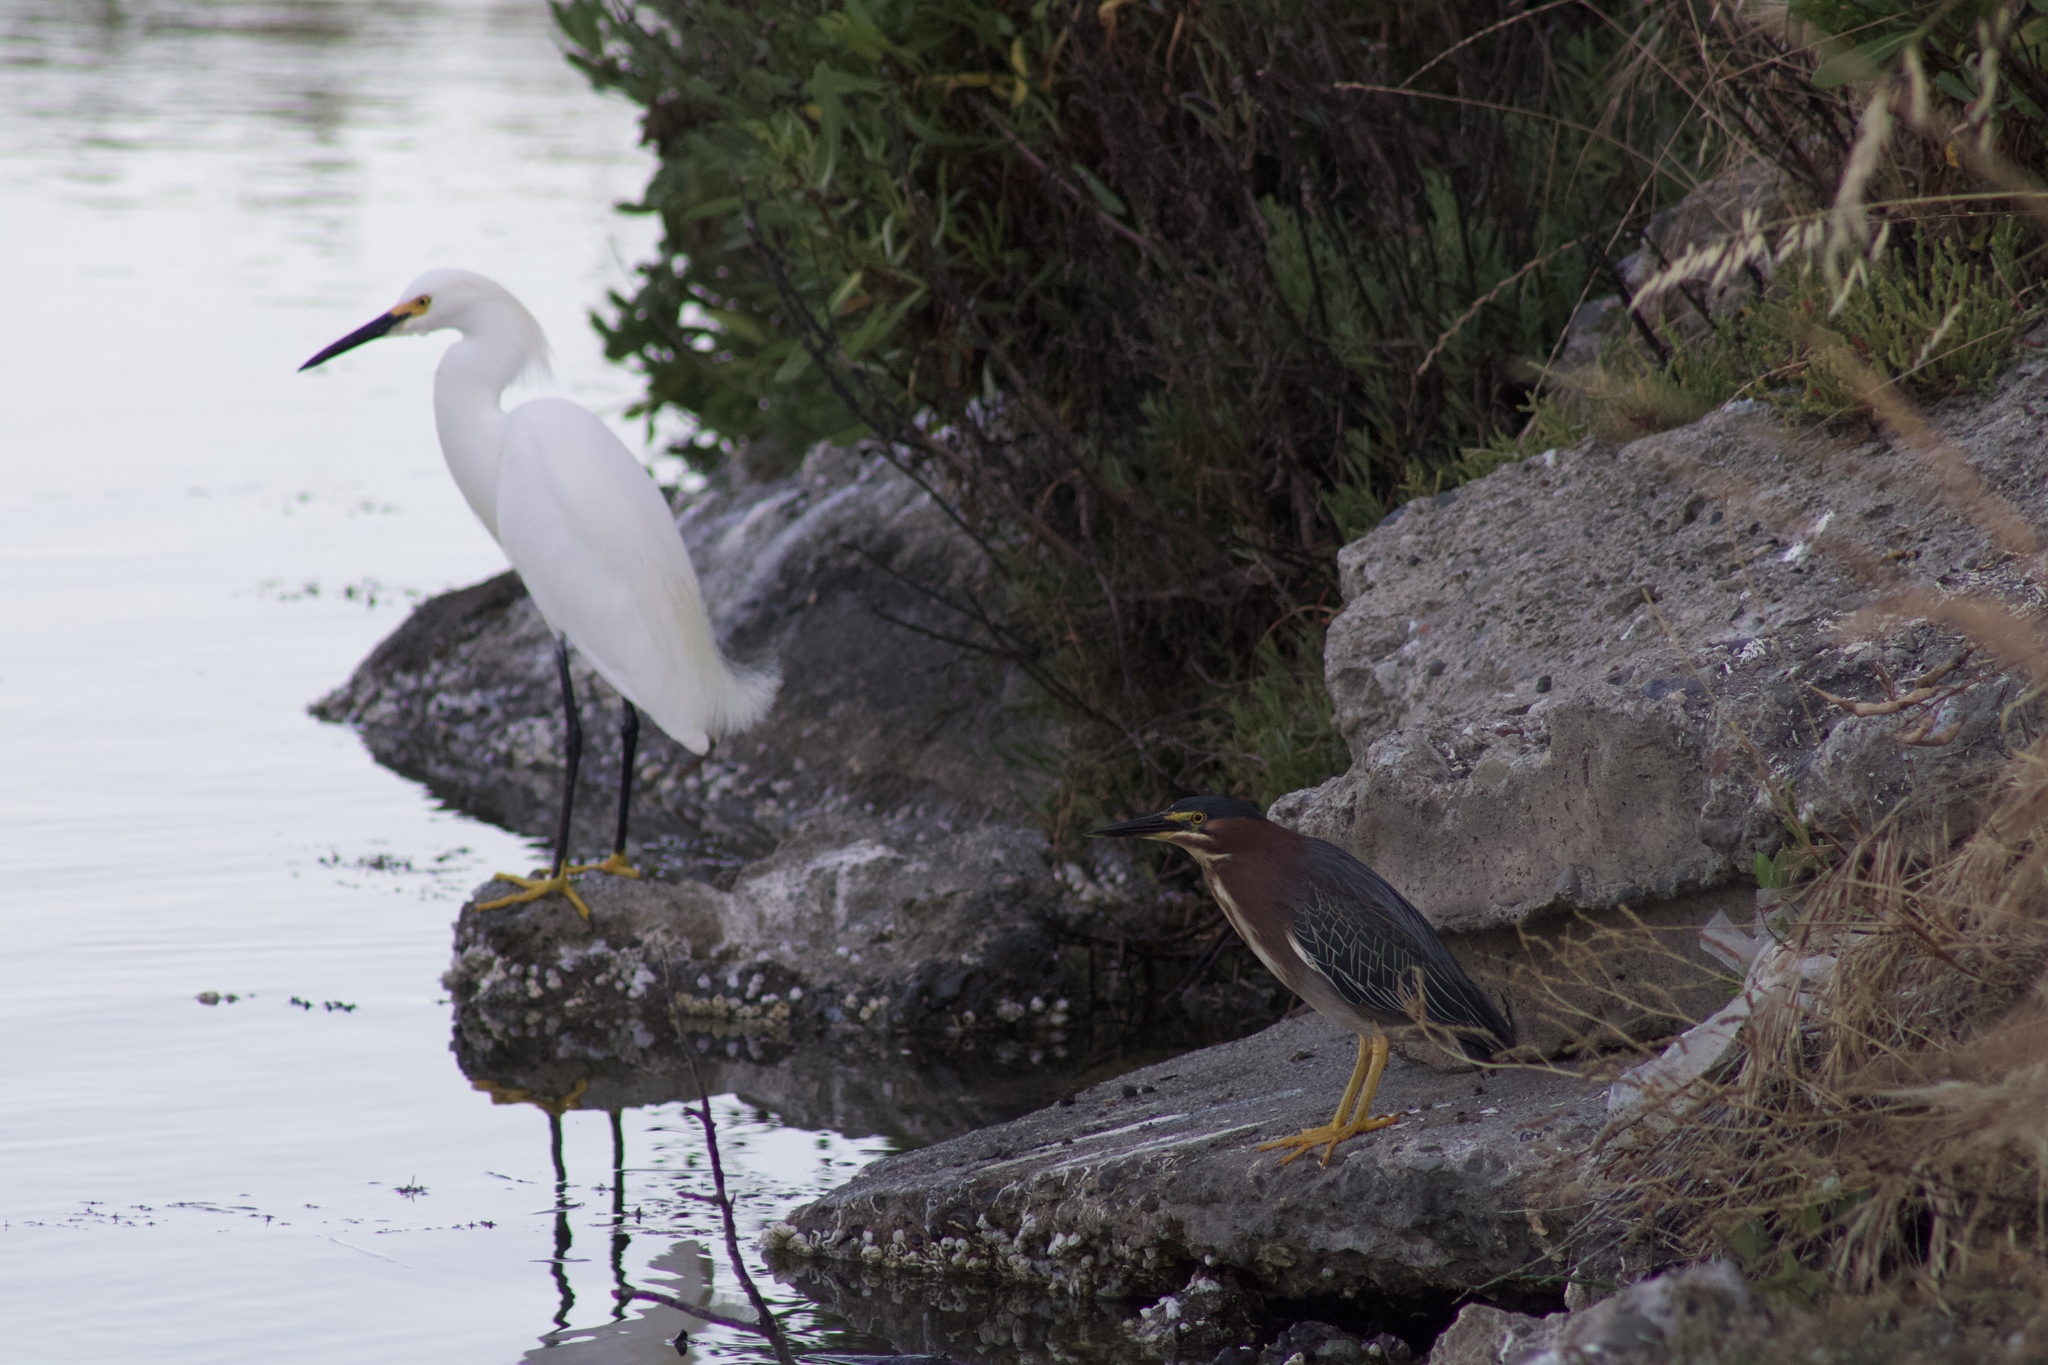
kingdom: Animalia
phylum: Chordata
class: Aves
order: Pelecaniformes
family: Ardeidae
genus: Egretta
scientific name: Egretta thula
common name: Snowy egret
